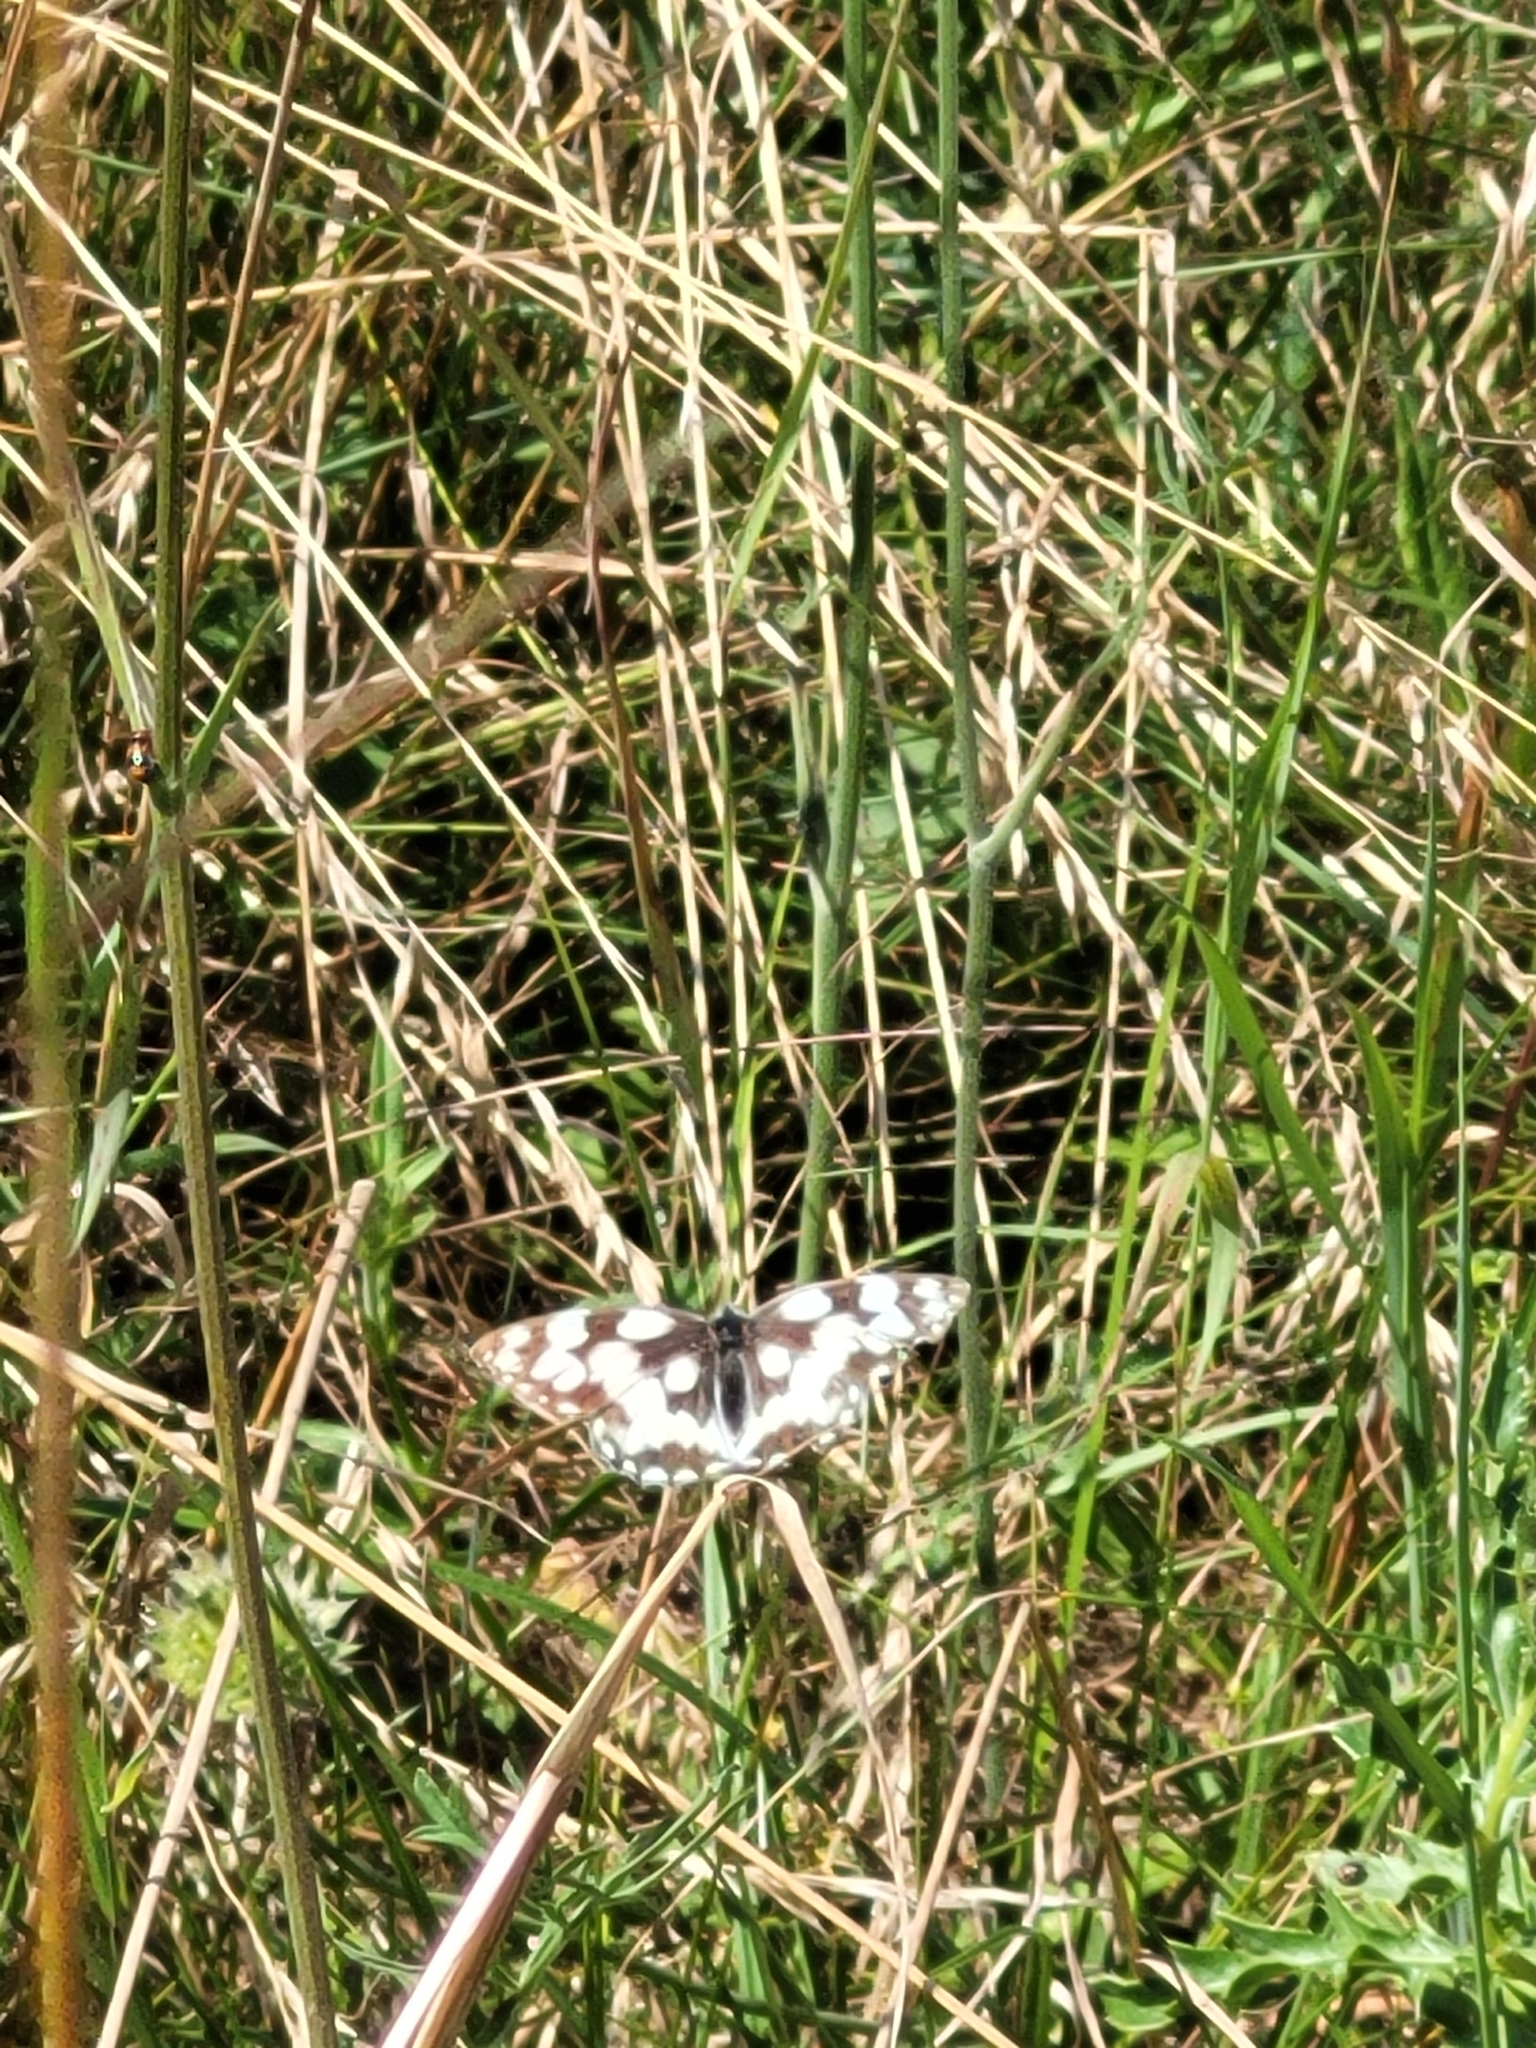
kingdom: Animalia
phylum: Arthropoda
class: Insecta
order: Lepidoptera
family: Nymphalidae
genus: Melanargia
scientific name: Melanargia galathea
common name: Marbled white
